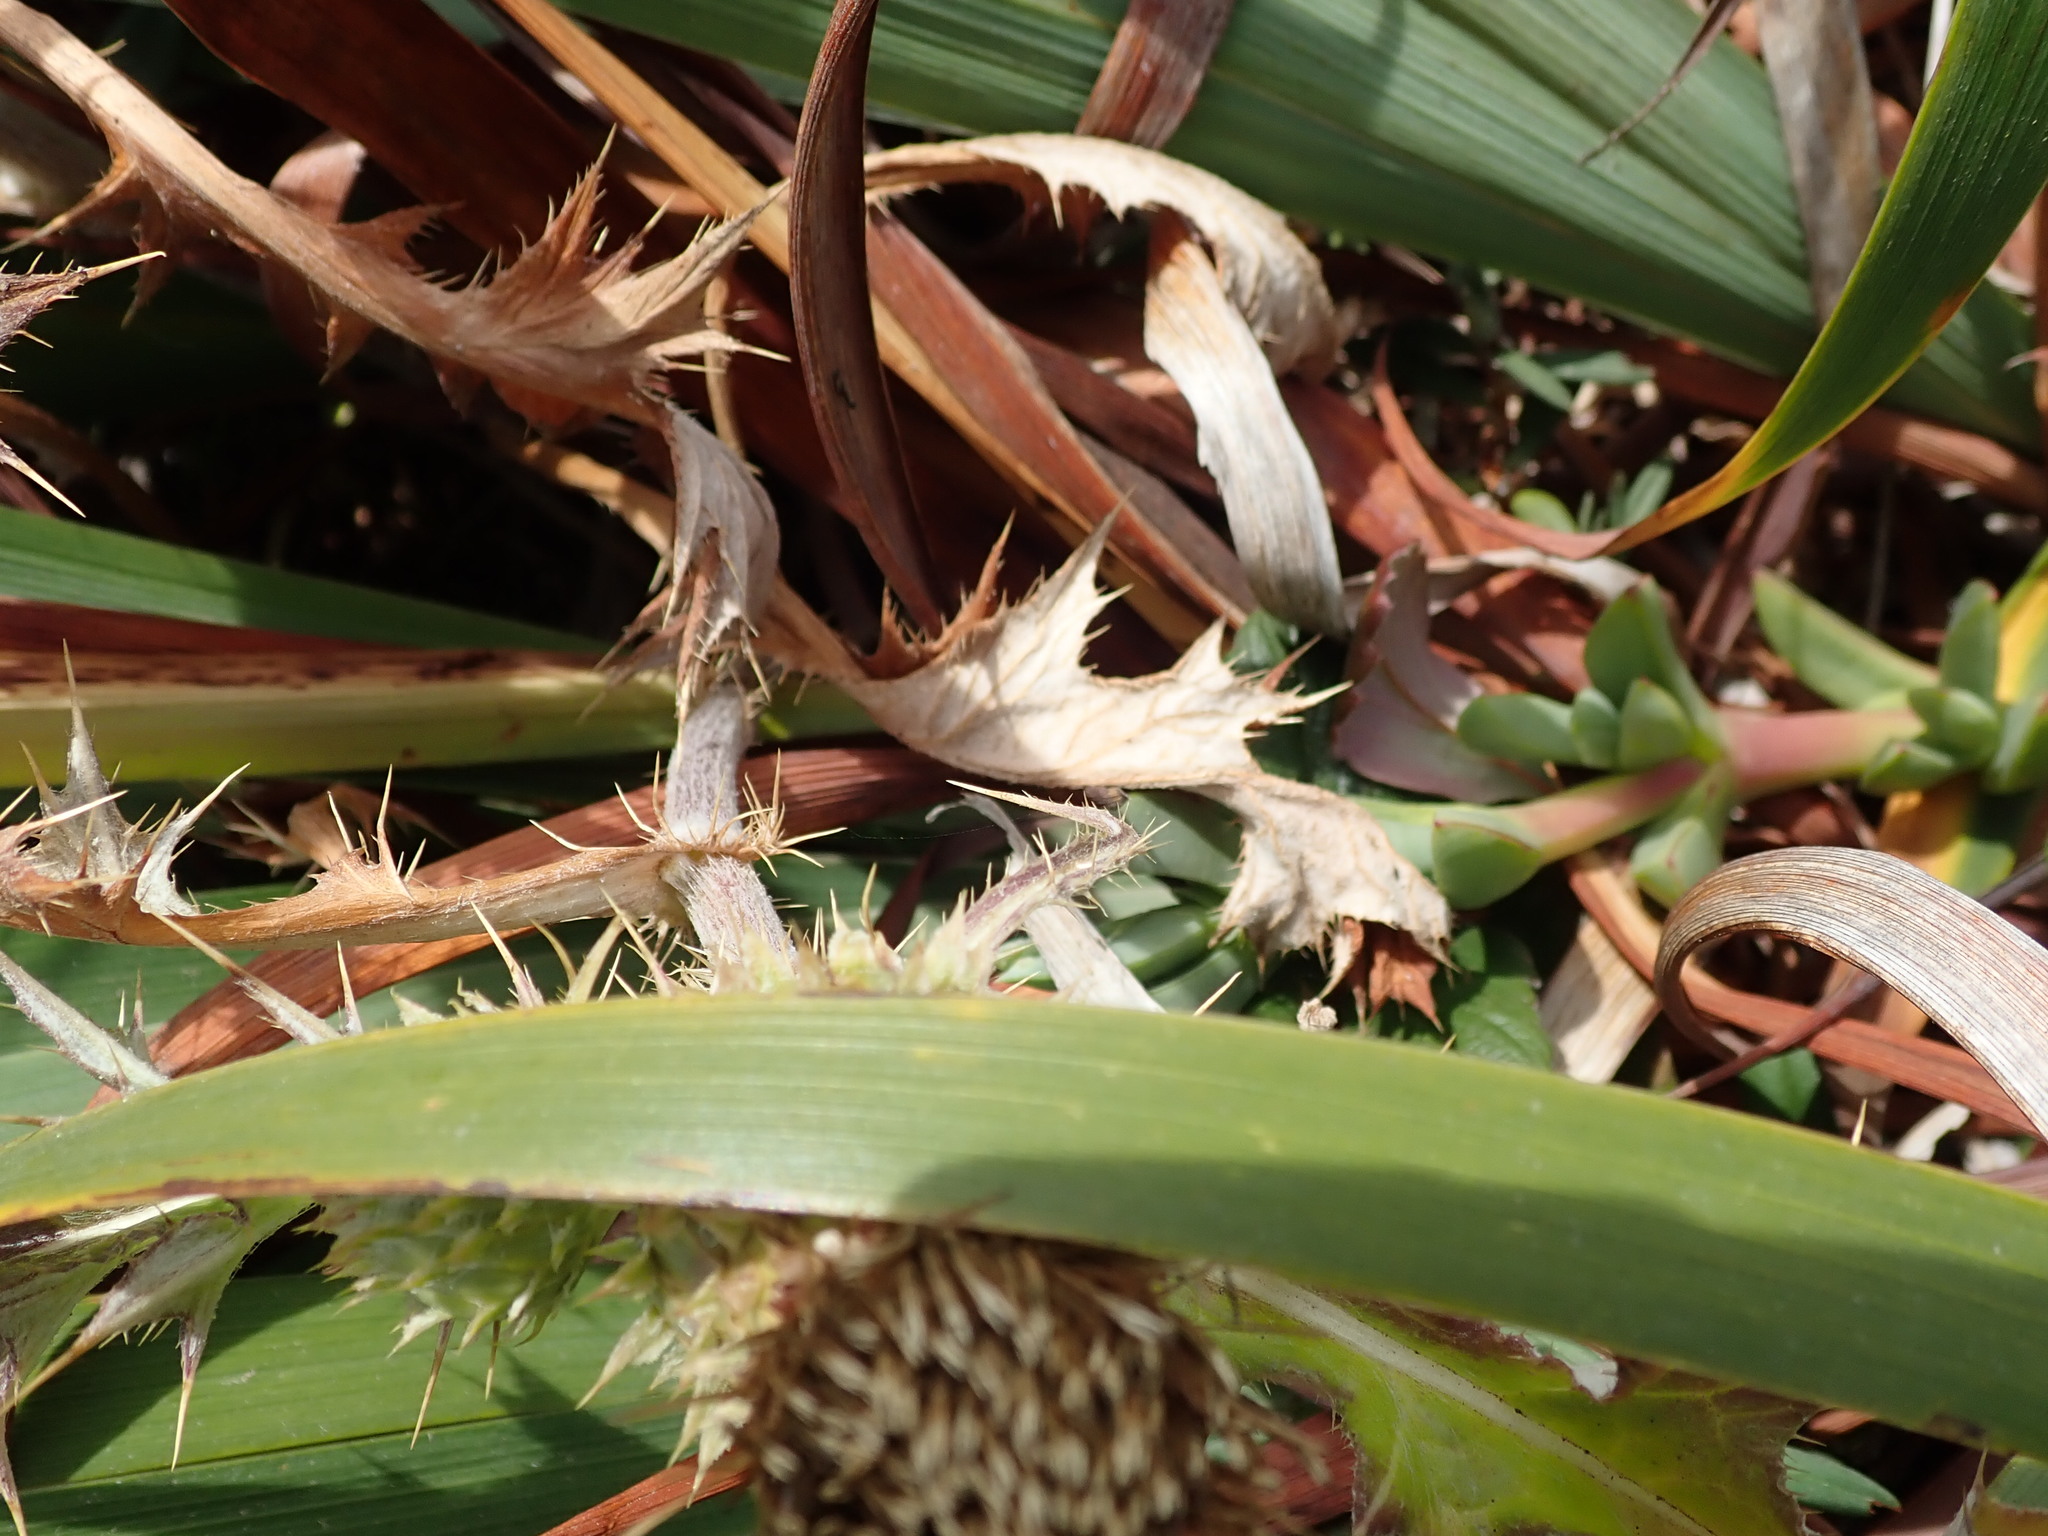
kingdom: Plantae
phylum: Tracheophyta
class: Magnoliopsida
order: Asterales
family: Asteraceae
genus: Cirsium
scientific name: Cirsium quercetorum
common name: Alameda county thistle
